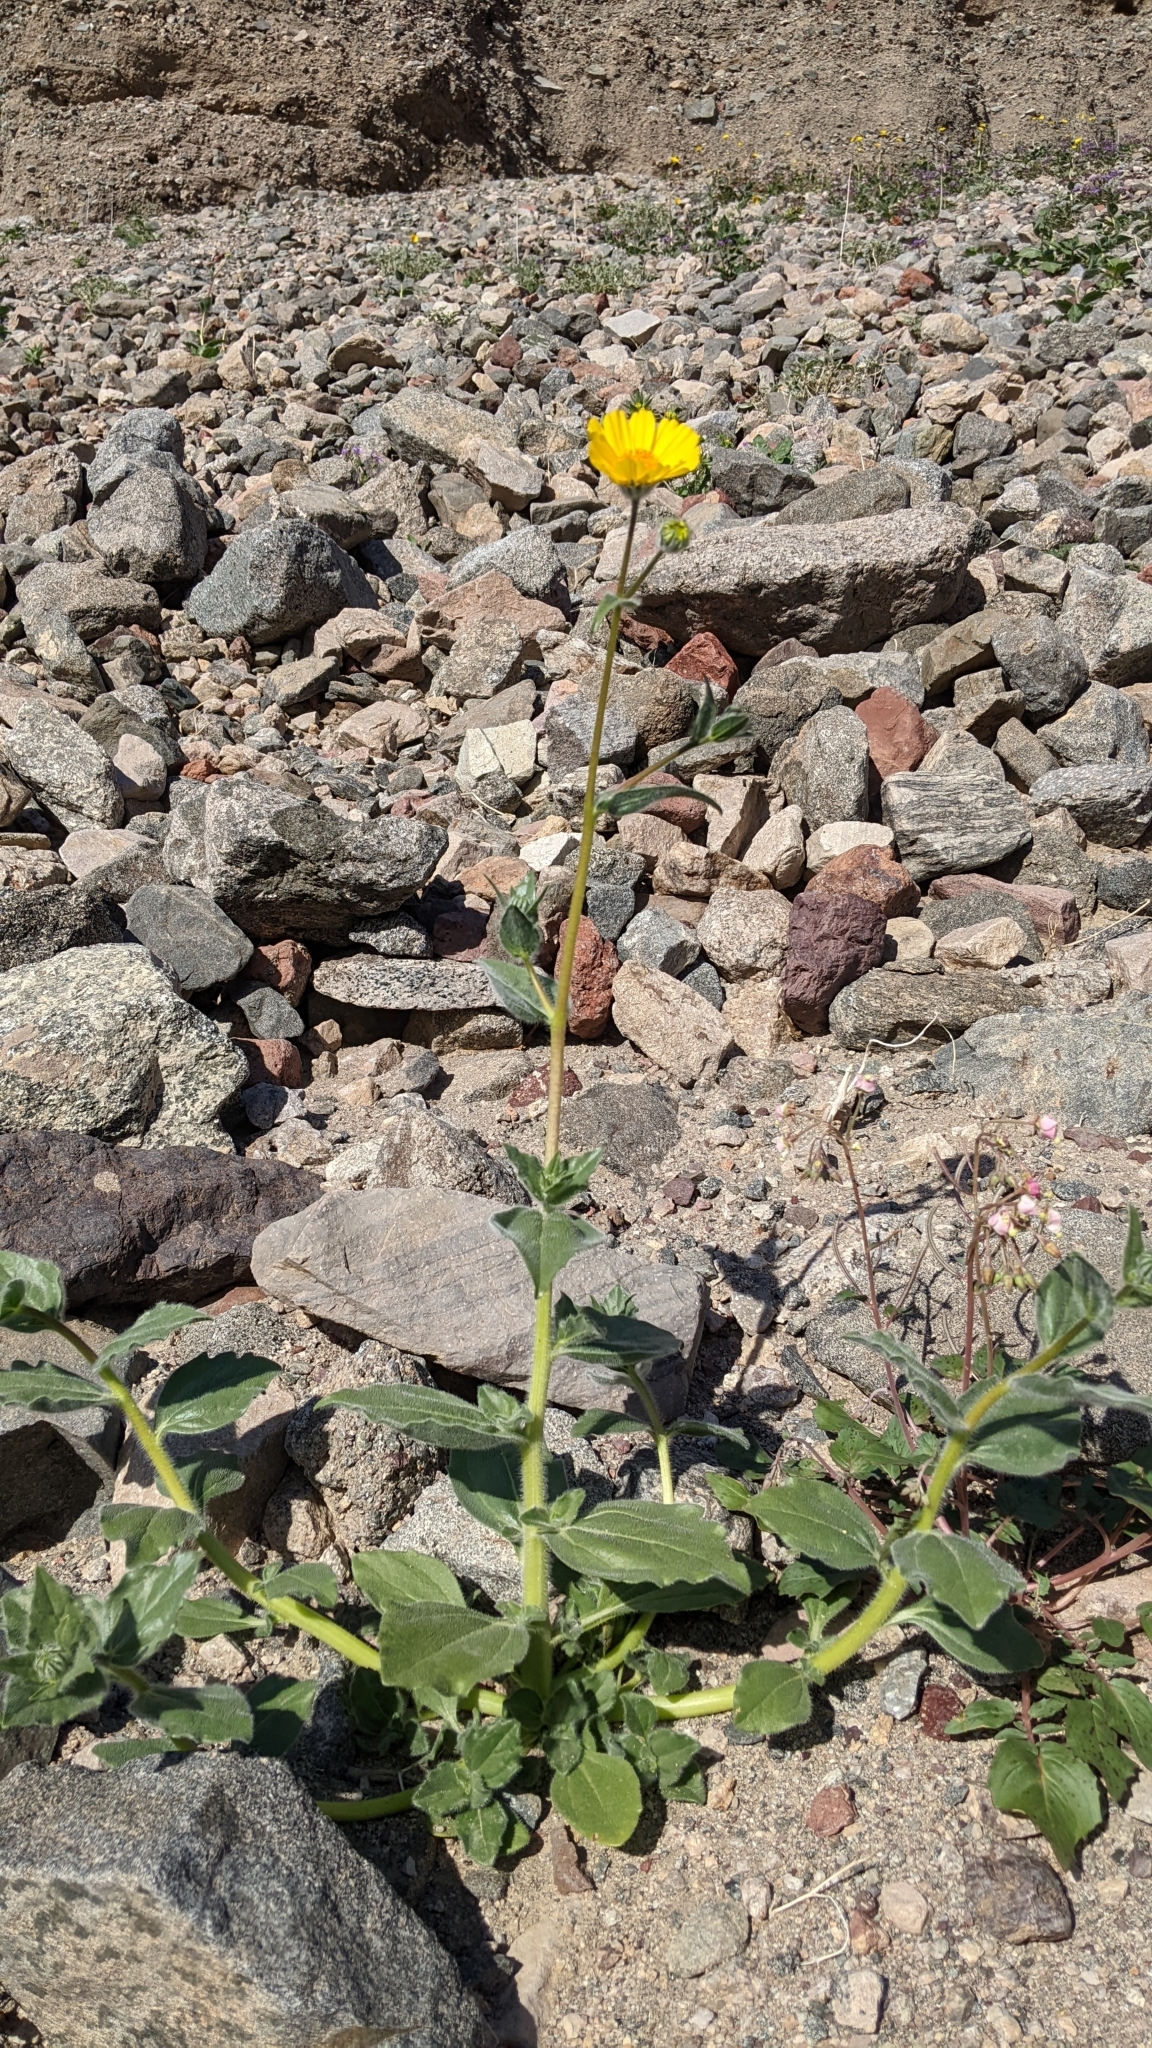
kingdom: Plantae
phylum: Tracheophyta
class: Magnoliopsida
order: Asterales
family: Asteraceae
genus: Geraea
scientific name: Geraea canescens
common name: Desert-gold
